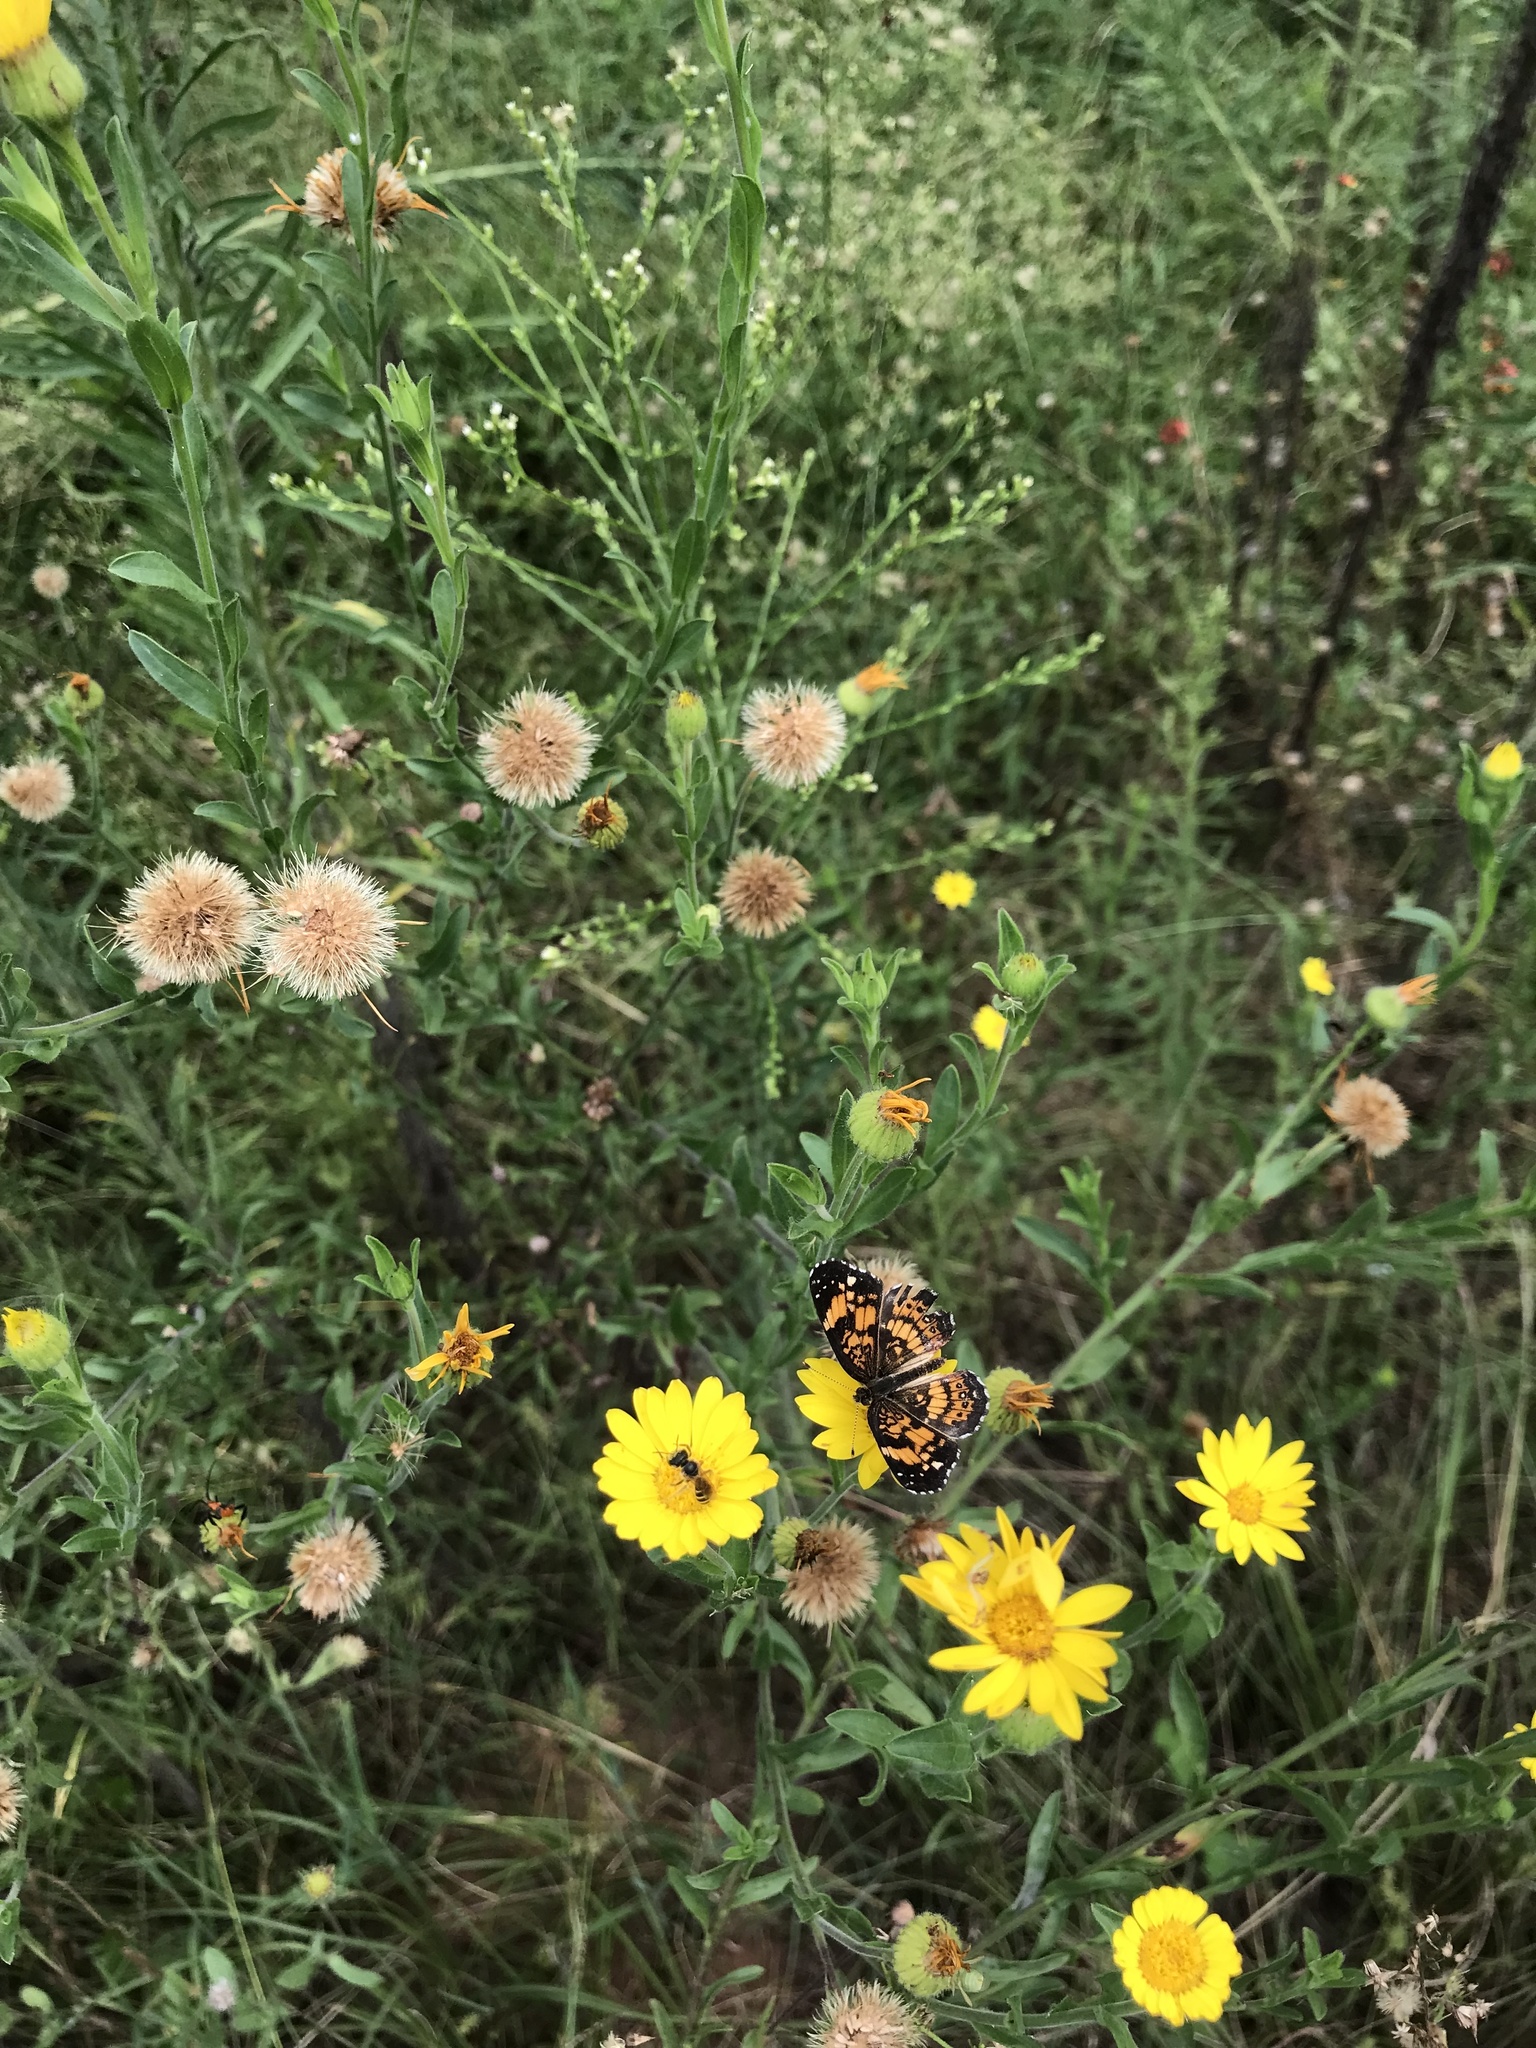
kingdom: Animalia
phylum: Arthropoda
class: Insecta
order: Lepidoptera
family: Nymphalidae
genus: Chlosyne
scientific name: Chlosyne nycteis
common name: Silvery checkerspot
